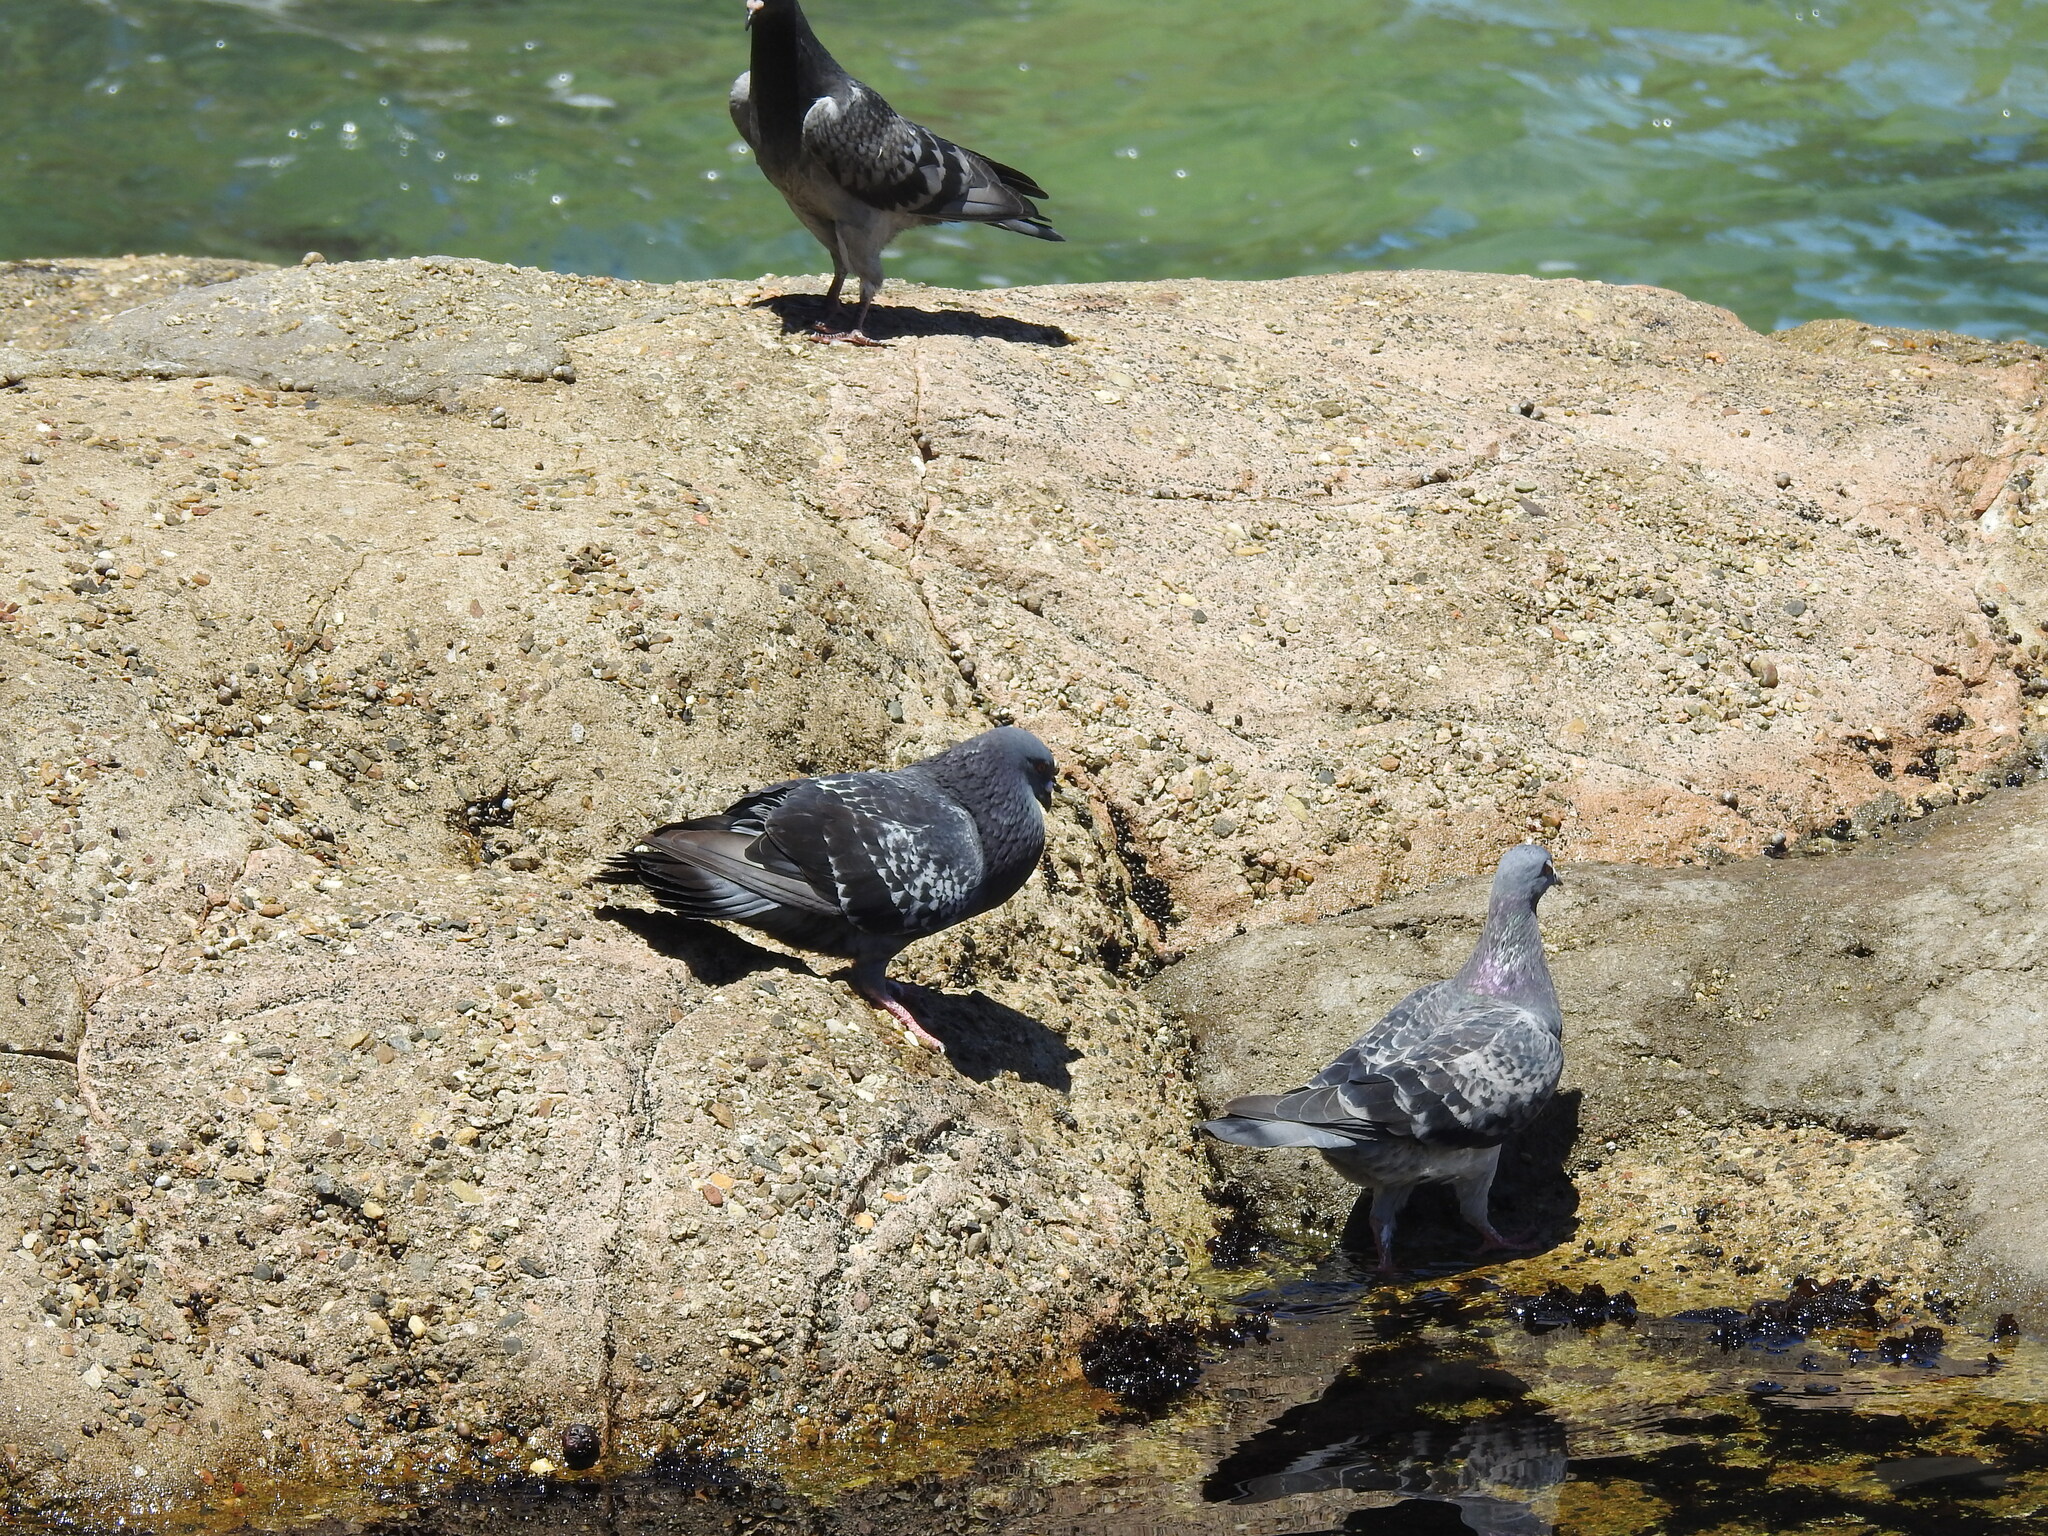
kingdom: Animalia
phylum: Chordata
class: Aves
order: Columbiformes
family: Columbidae
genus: Columba
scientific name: Columba livia
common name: Rock pigeon
